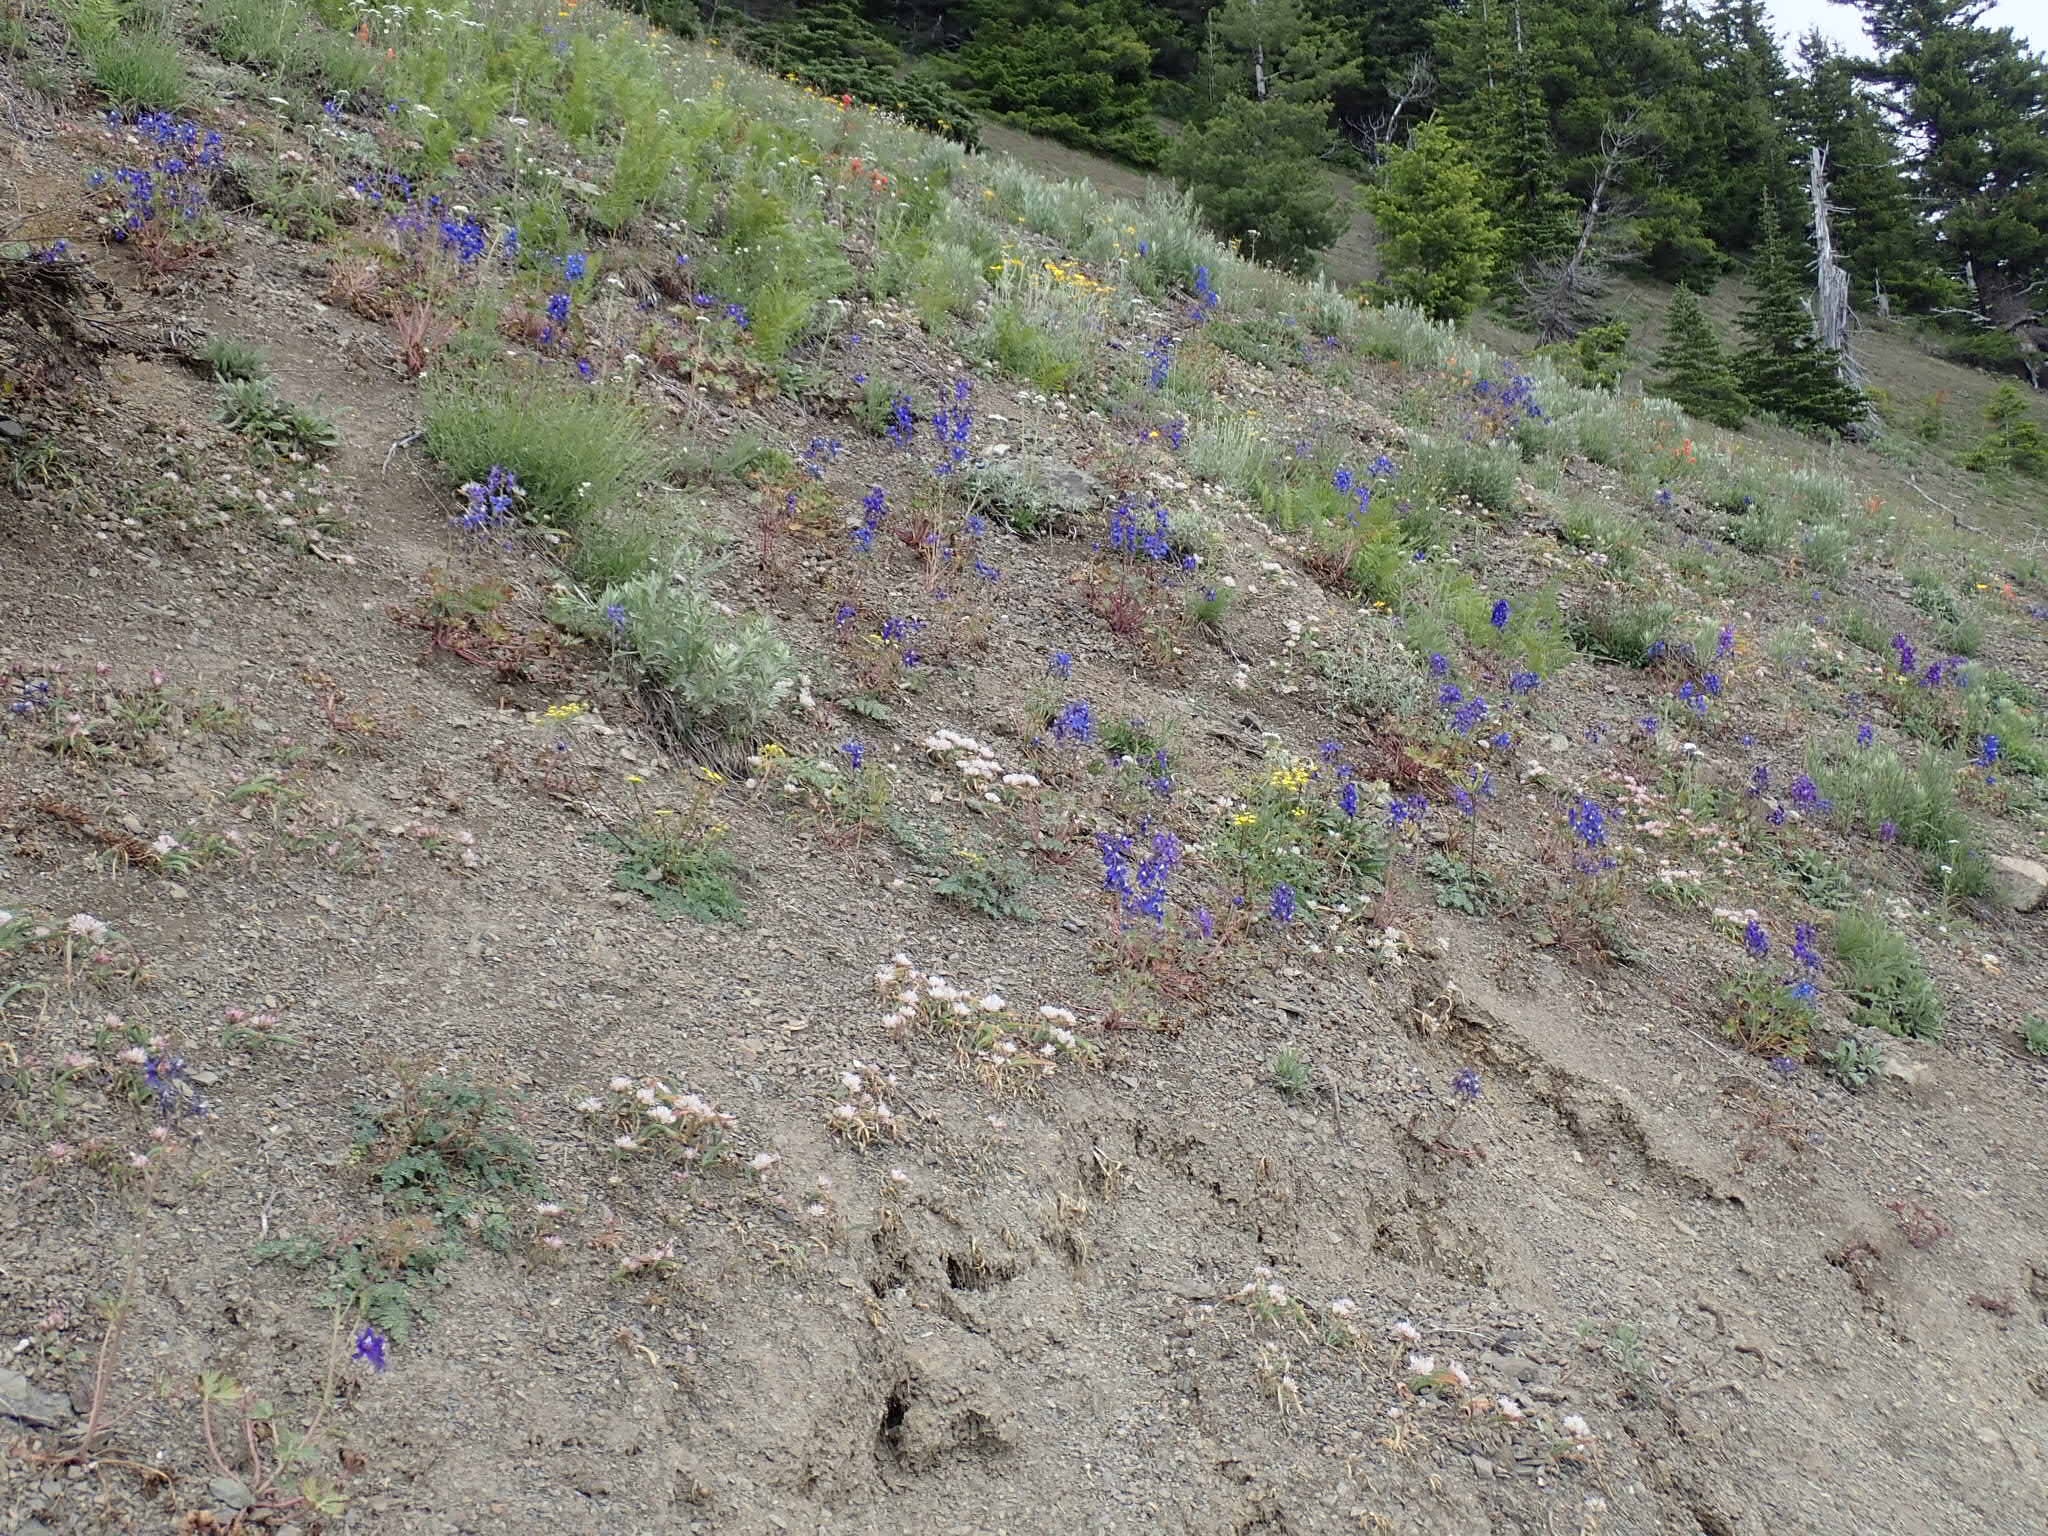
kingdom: Plantae
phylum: Tracheophyta
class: Magnoliopsida
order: Ranunculales
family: Ranunculaceae
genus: Delphinium
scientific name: Delphinium glareosum
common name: Olympic mountain larkspur
